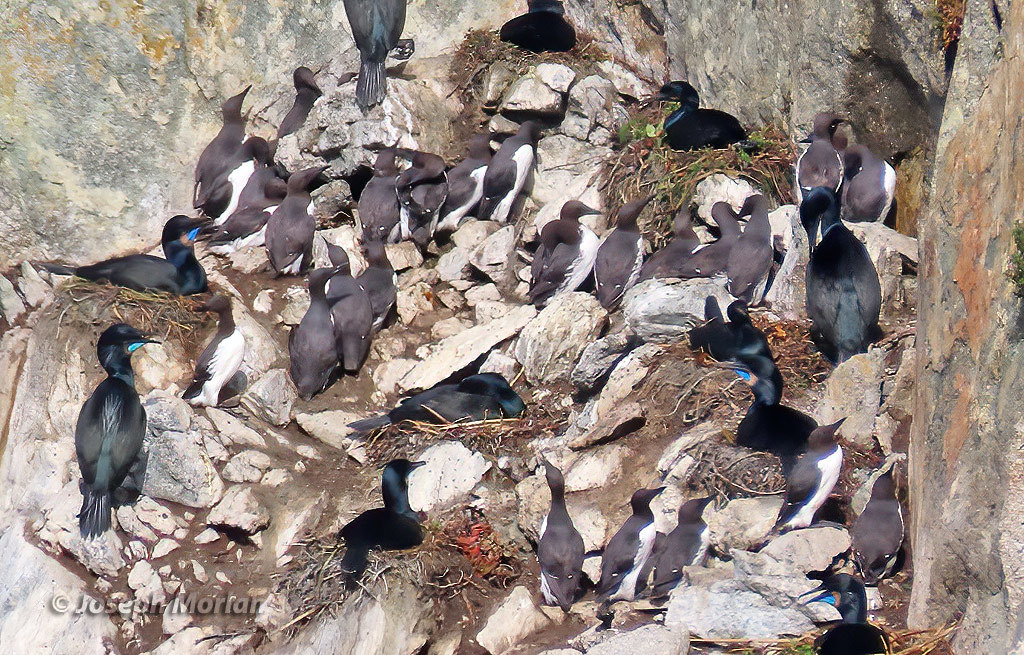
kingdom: Animalia
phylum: Chordata
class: Aves
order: Suliformes
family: Phalacrocoracidae
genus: Urile
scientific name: Urile penicillatus
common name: Brandt's cormorant
